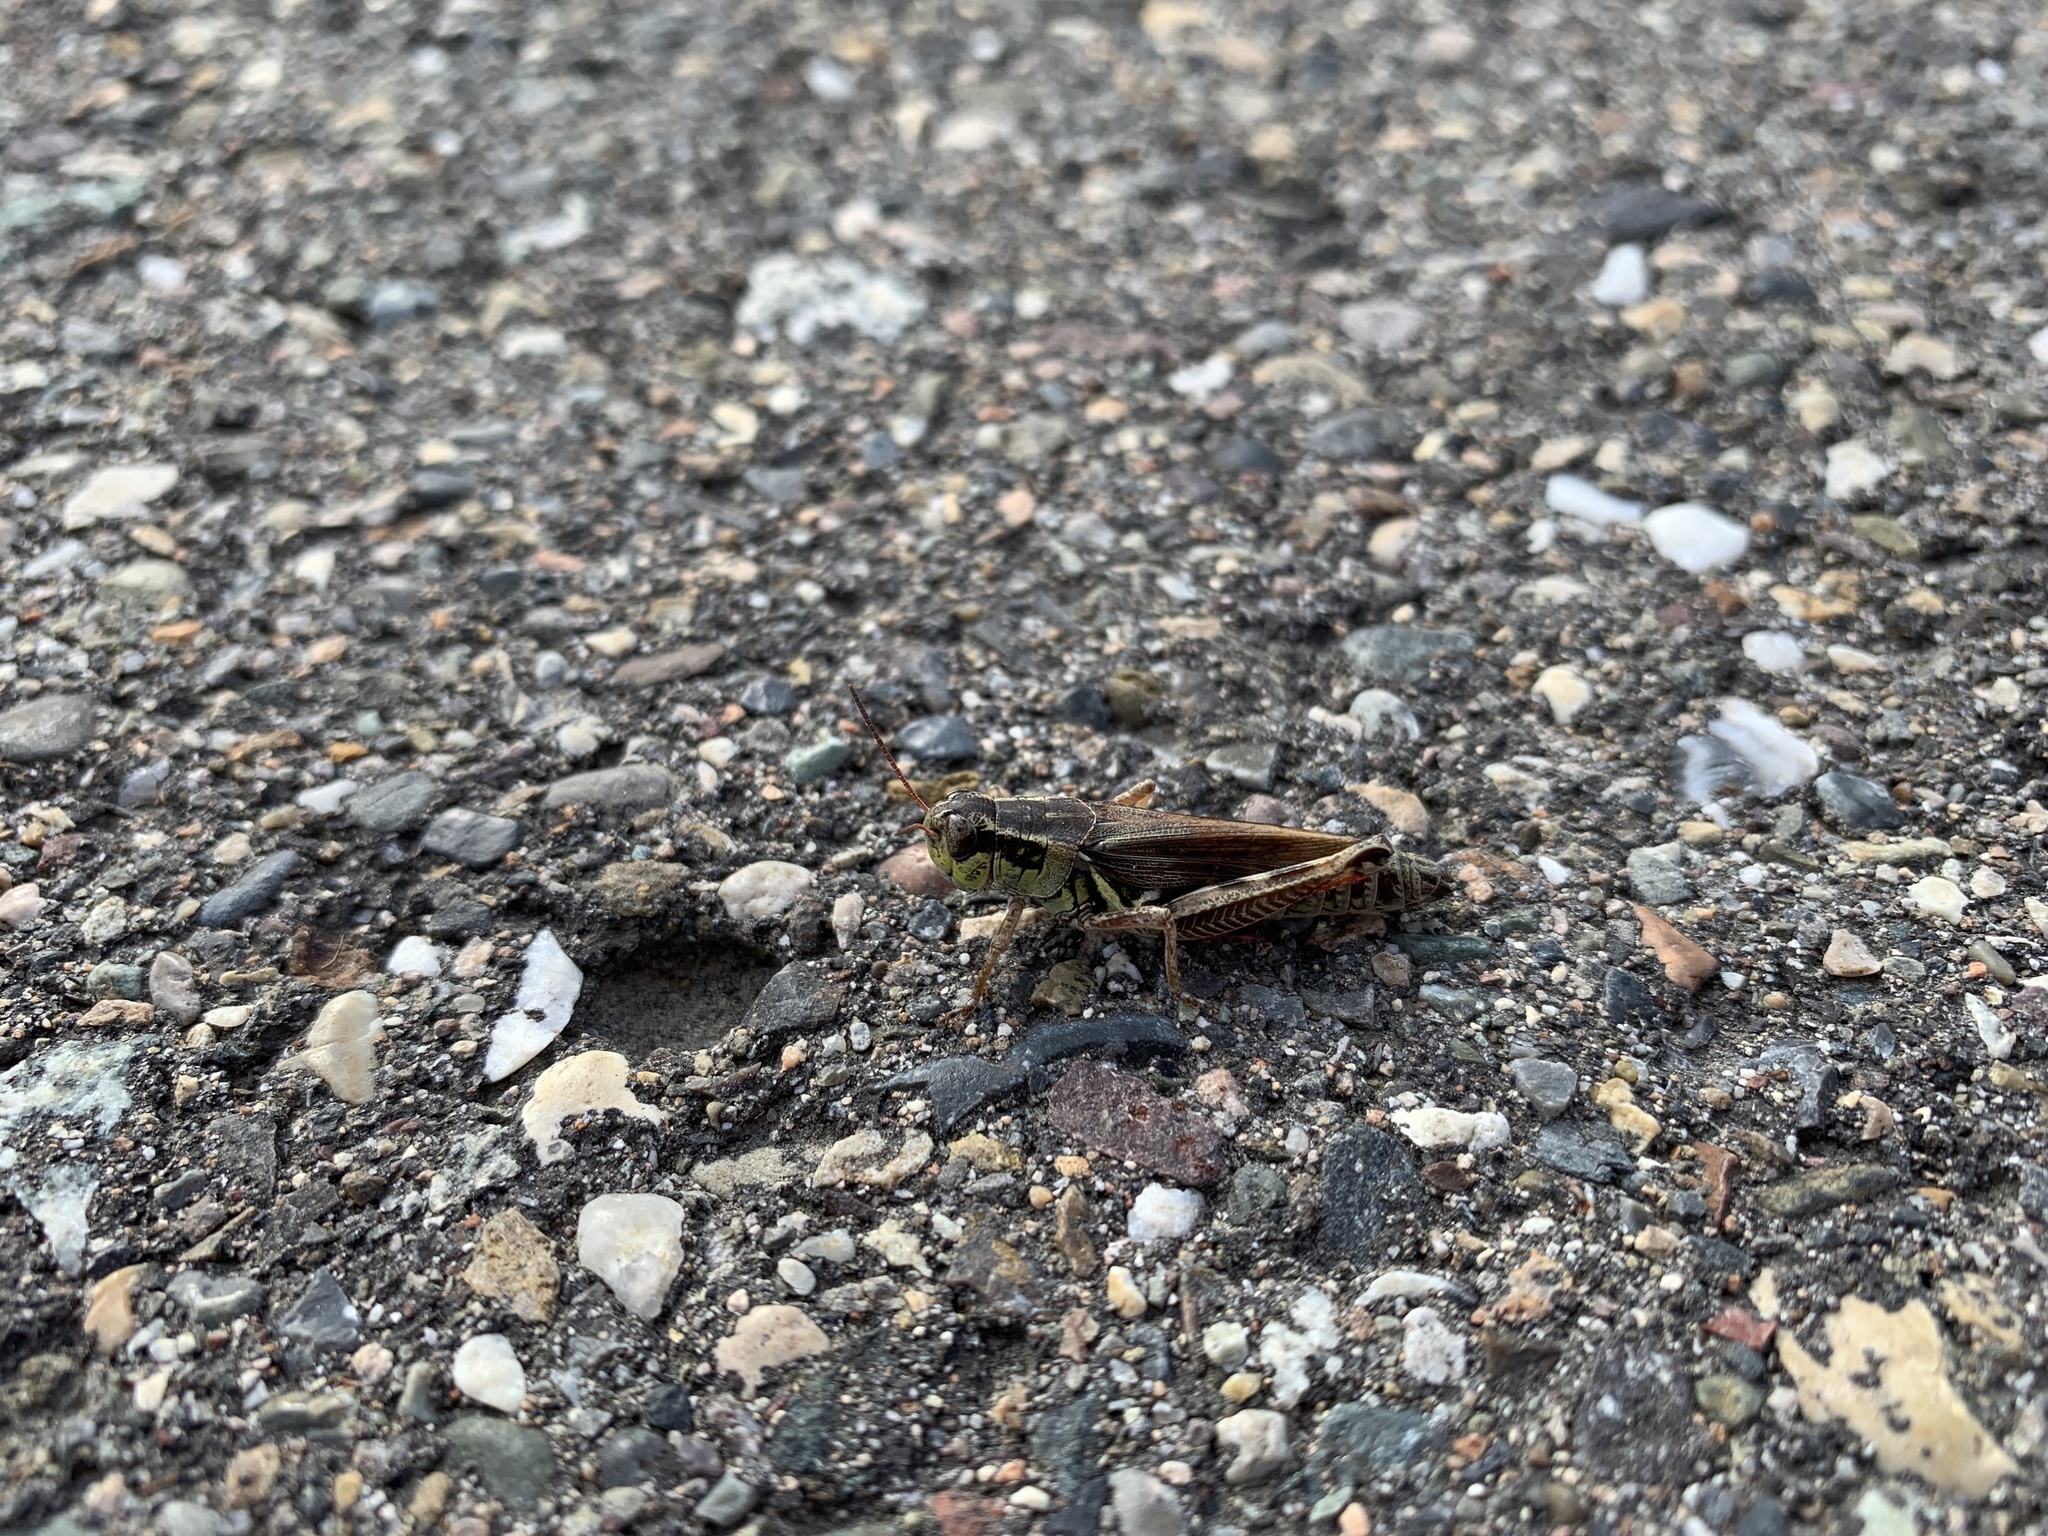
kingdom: Animalia
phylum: Arthropoda
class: Insecta
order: Orthoptera
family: Acrididae
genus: Melanoplus
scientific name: Melanoplus borealis
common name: Northern grasshopper
